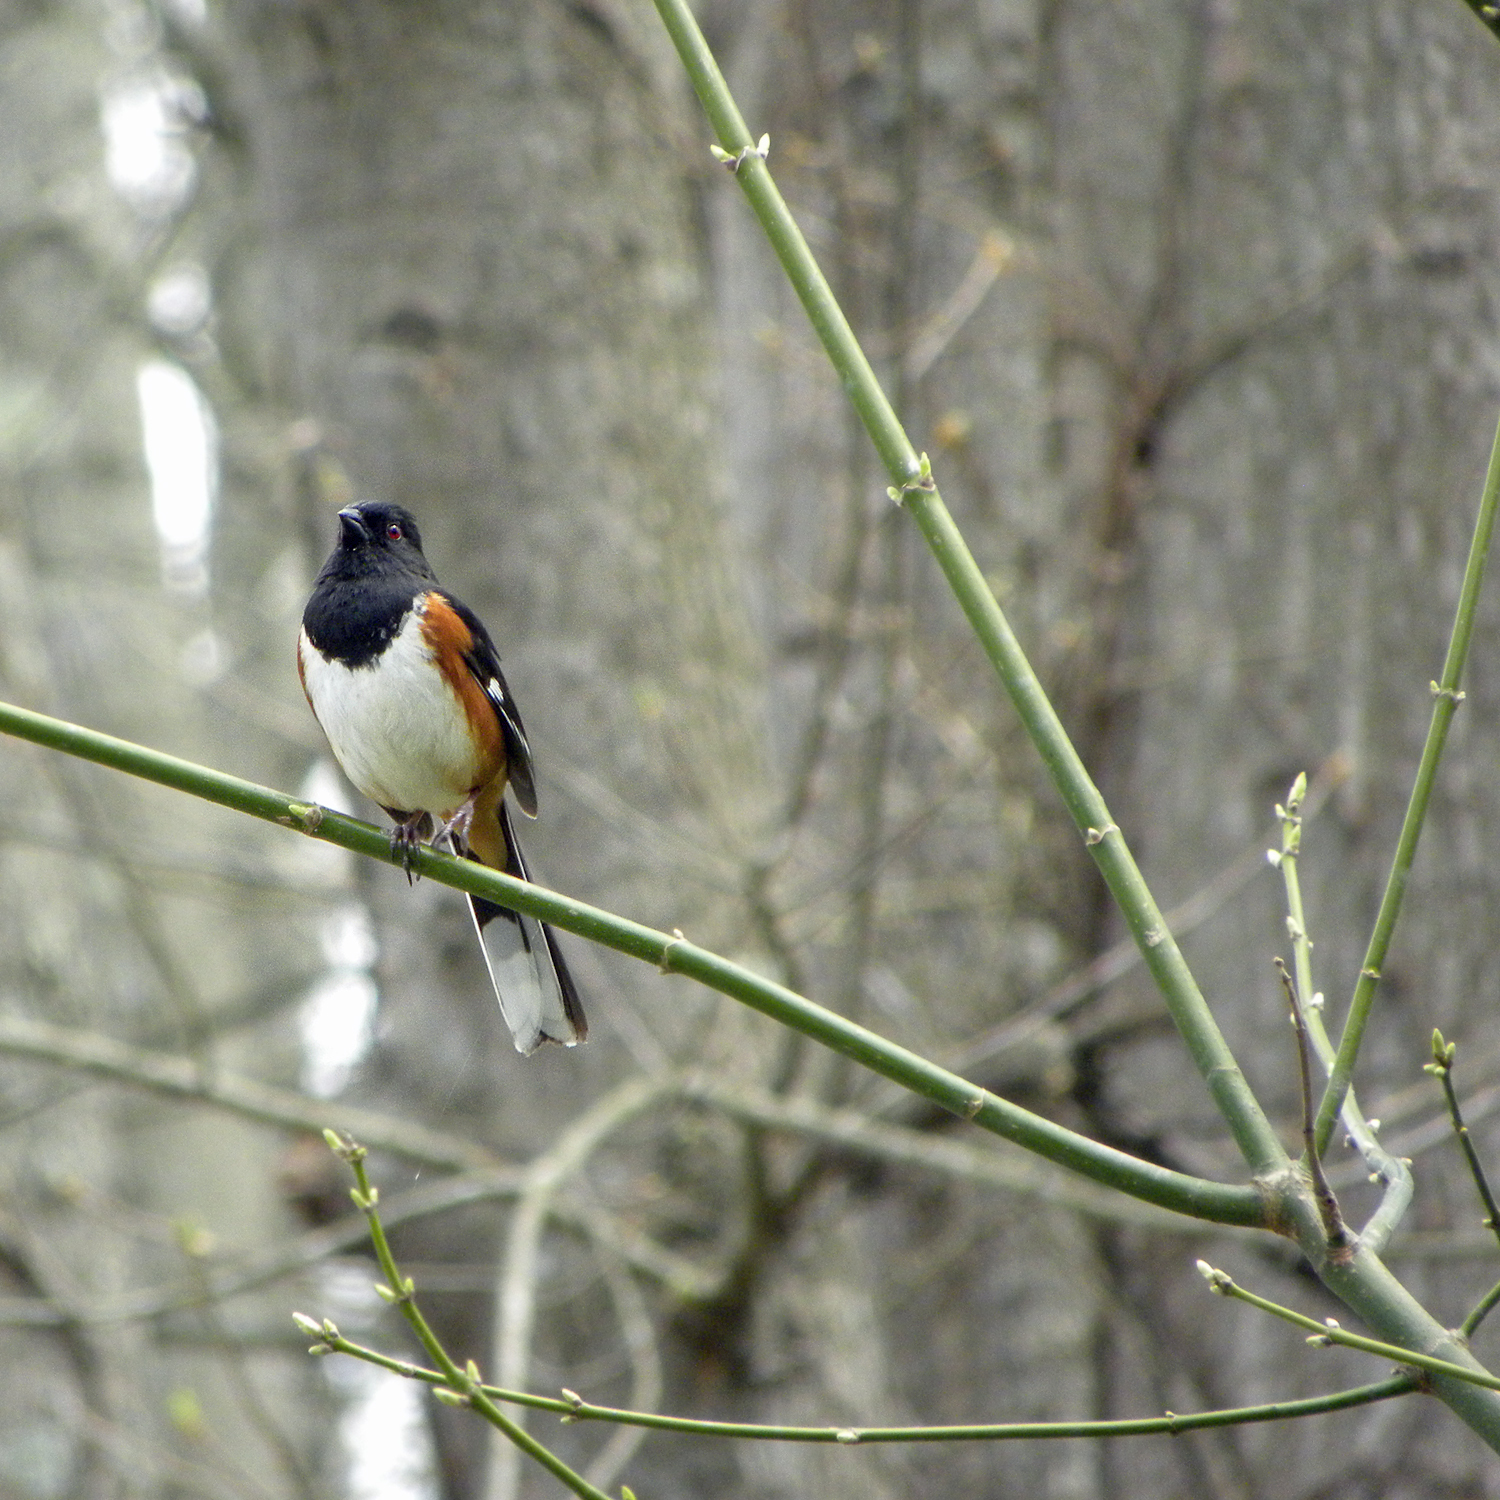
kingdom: Animalia
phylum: Chordata
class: Aves
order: Passeriformes
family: Passerellidae
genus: Pipilo
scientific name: Pipilo erythrophthalmus
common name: Eastern towhee
